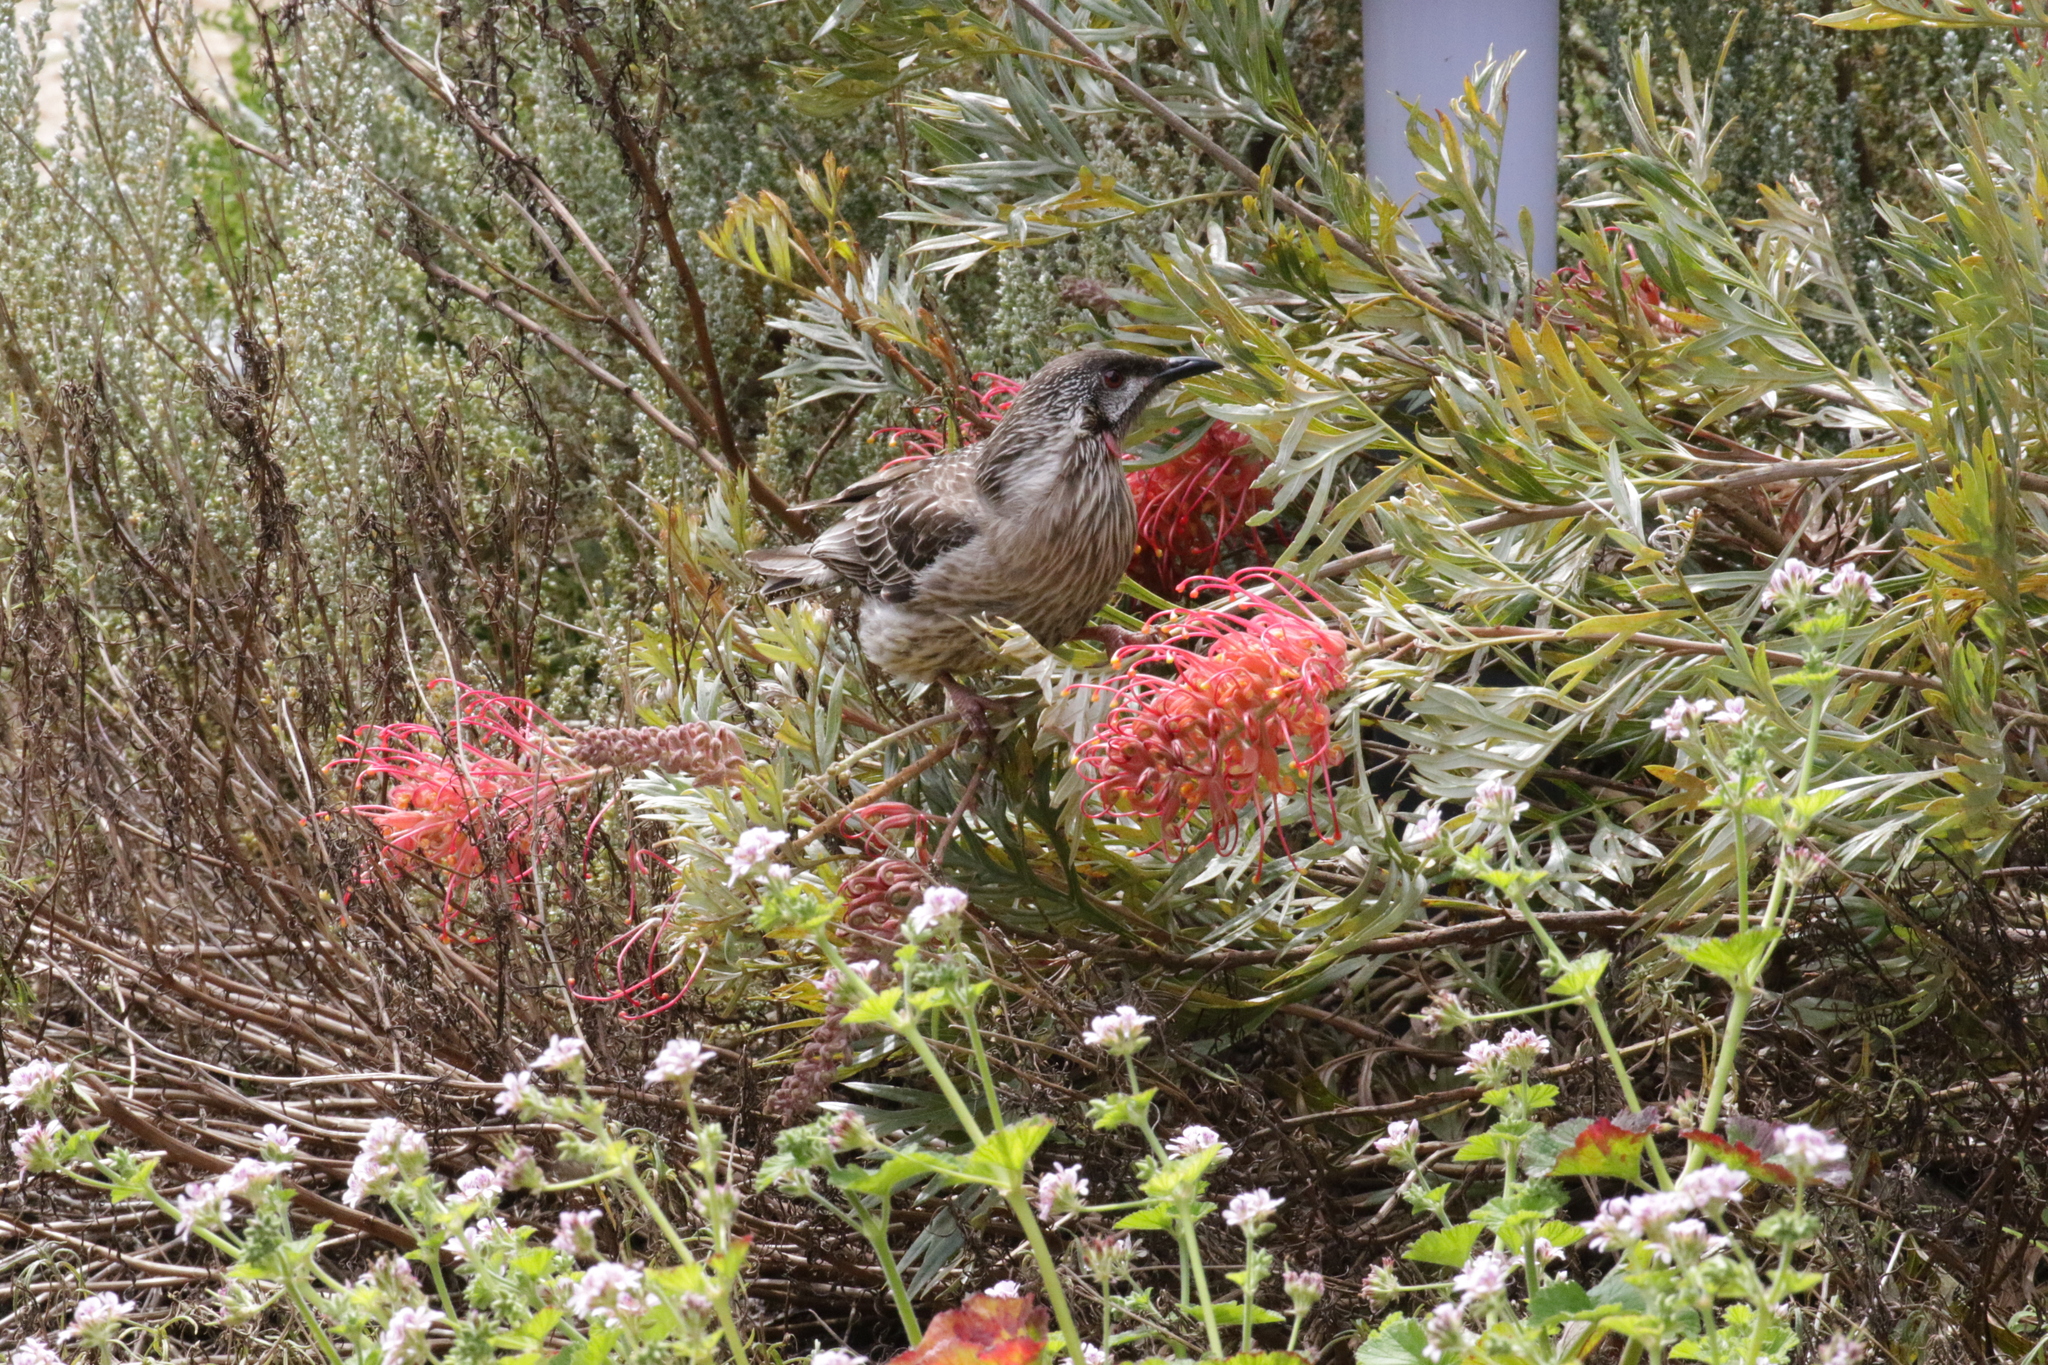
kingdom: Animalia
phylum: Chordata
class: Aves
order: Passeriformes
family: Meliphagidae
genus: Anthochaera
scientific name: Anthochaera carunculata
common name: Red wattlebird
